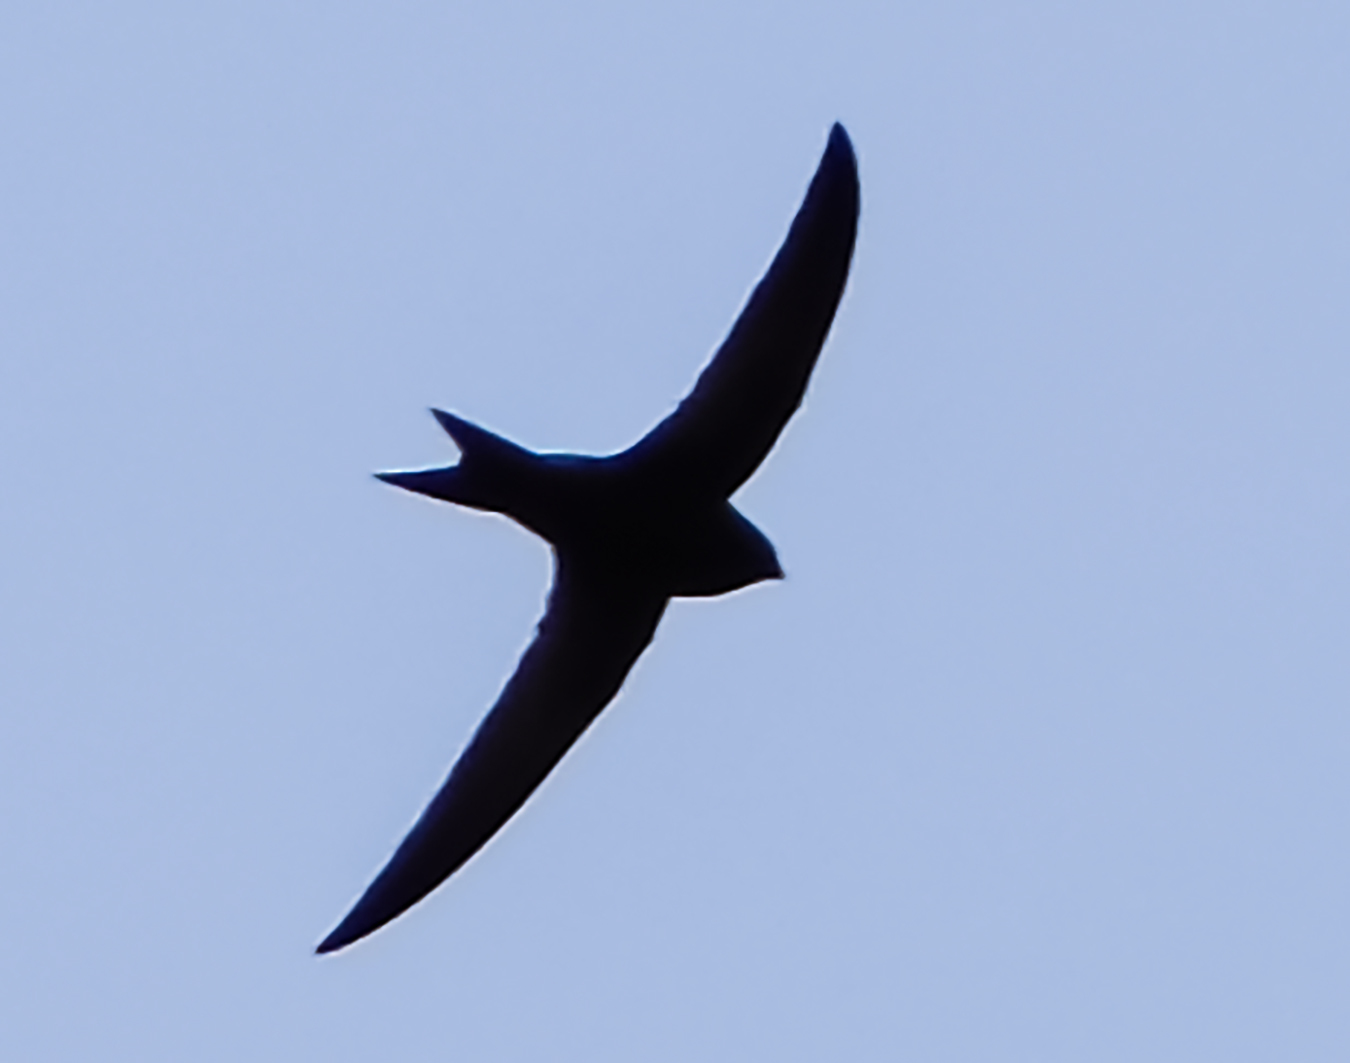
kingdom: Animalia
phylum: Chordata
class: Aves
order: Apodiformes
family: Apodidae
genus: Apus
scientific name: Apus apus
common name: Common swift
